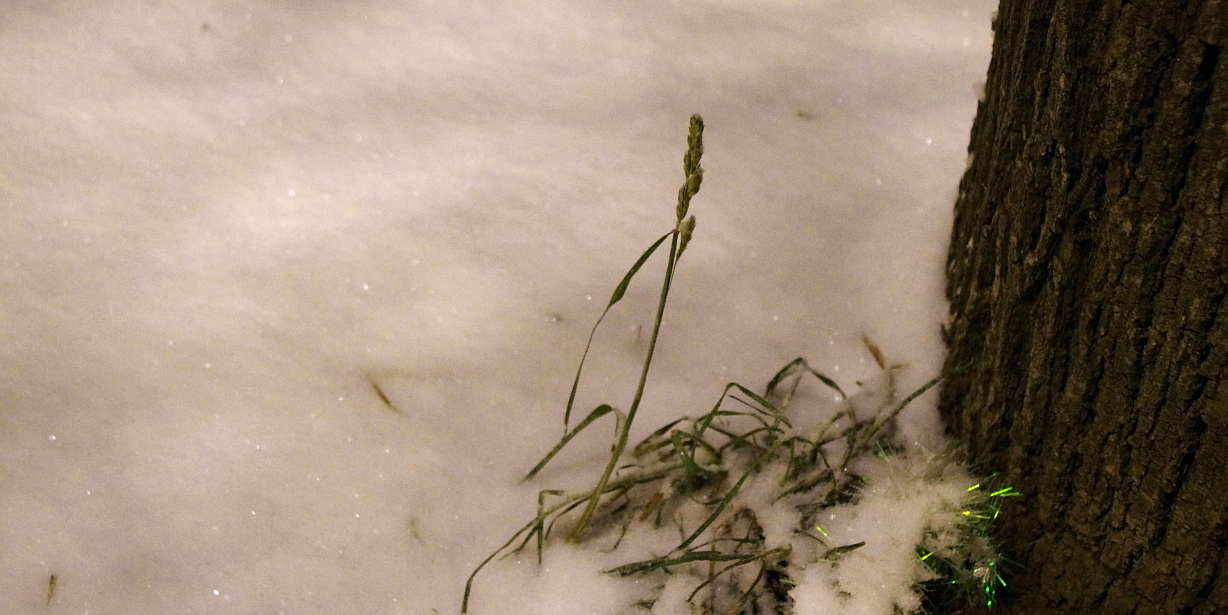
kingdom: Plantae
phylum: Tracheophyta
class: Liliopsida
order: Poales
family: Poaceae
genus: Dactylis
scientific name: Dactylis glomerata
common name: Orchardgrass
